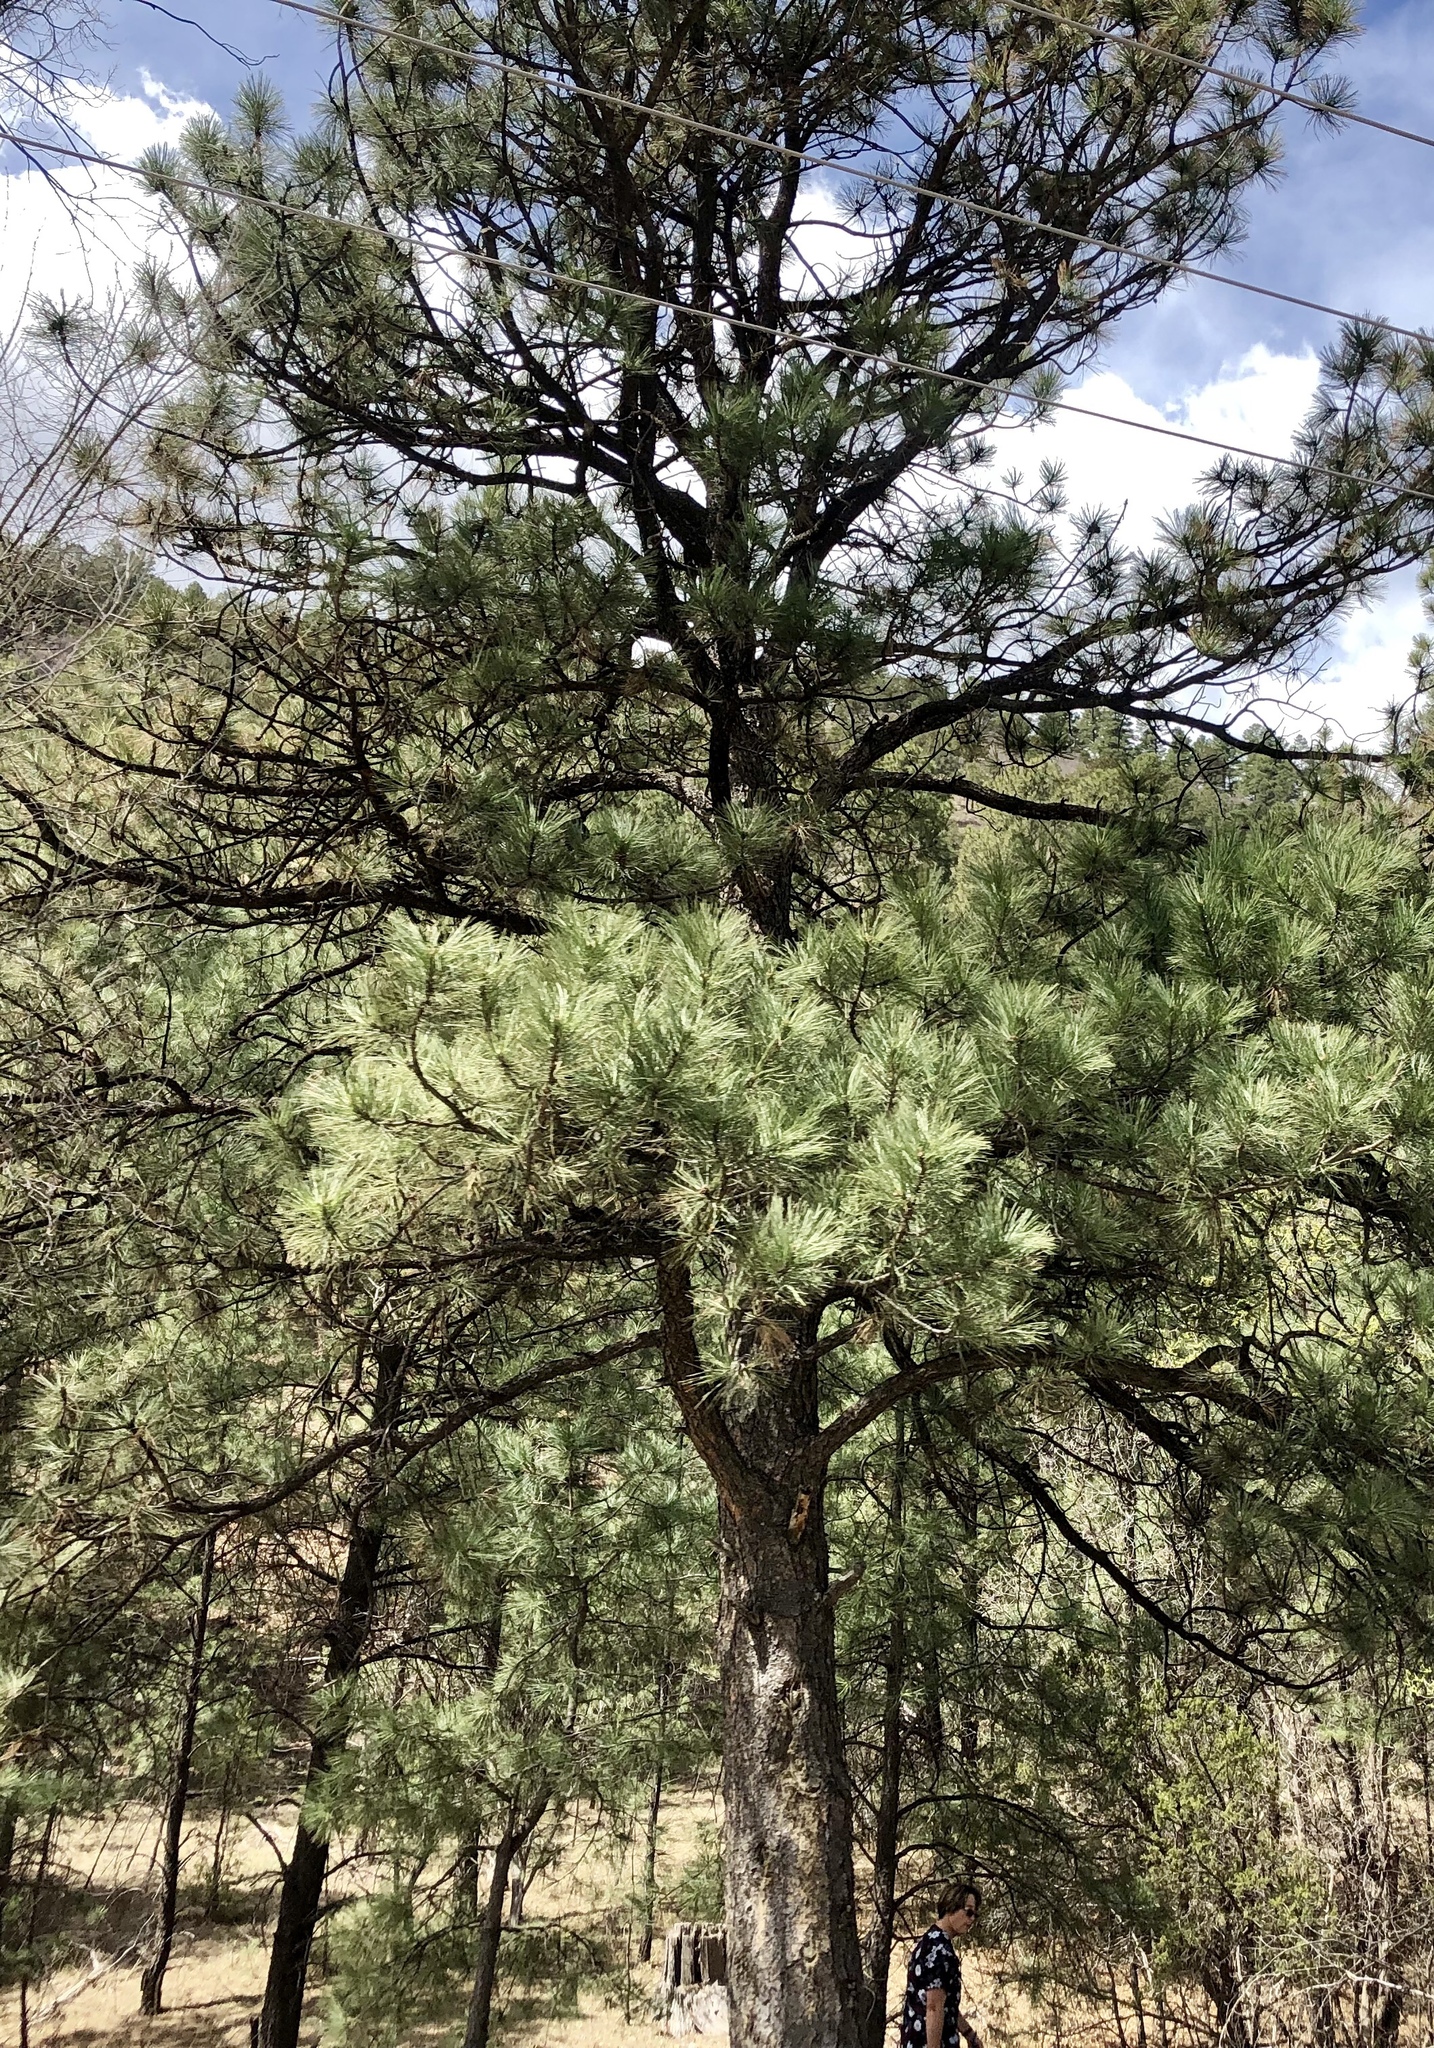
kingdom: Plantae
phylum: Tracheophyta
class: Pinopsida
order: Pinales
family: Pinaceae
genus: Pinus
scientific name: Pinus ponderosa
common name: Western yellow-pine
